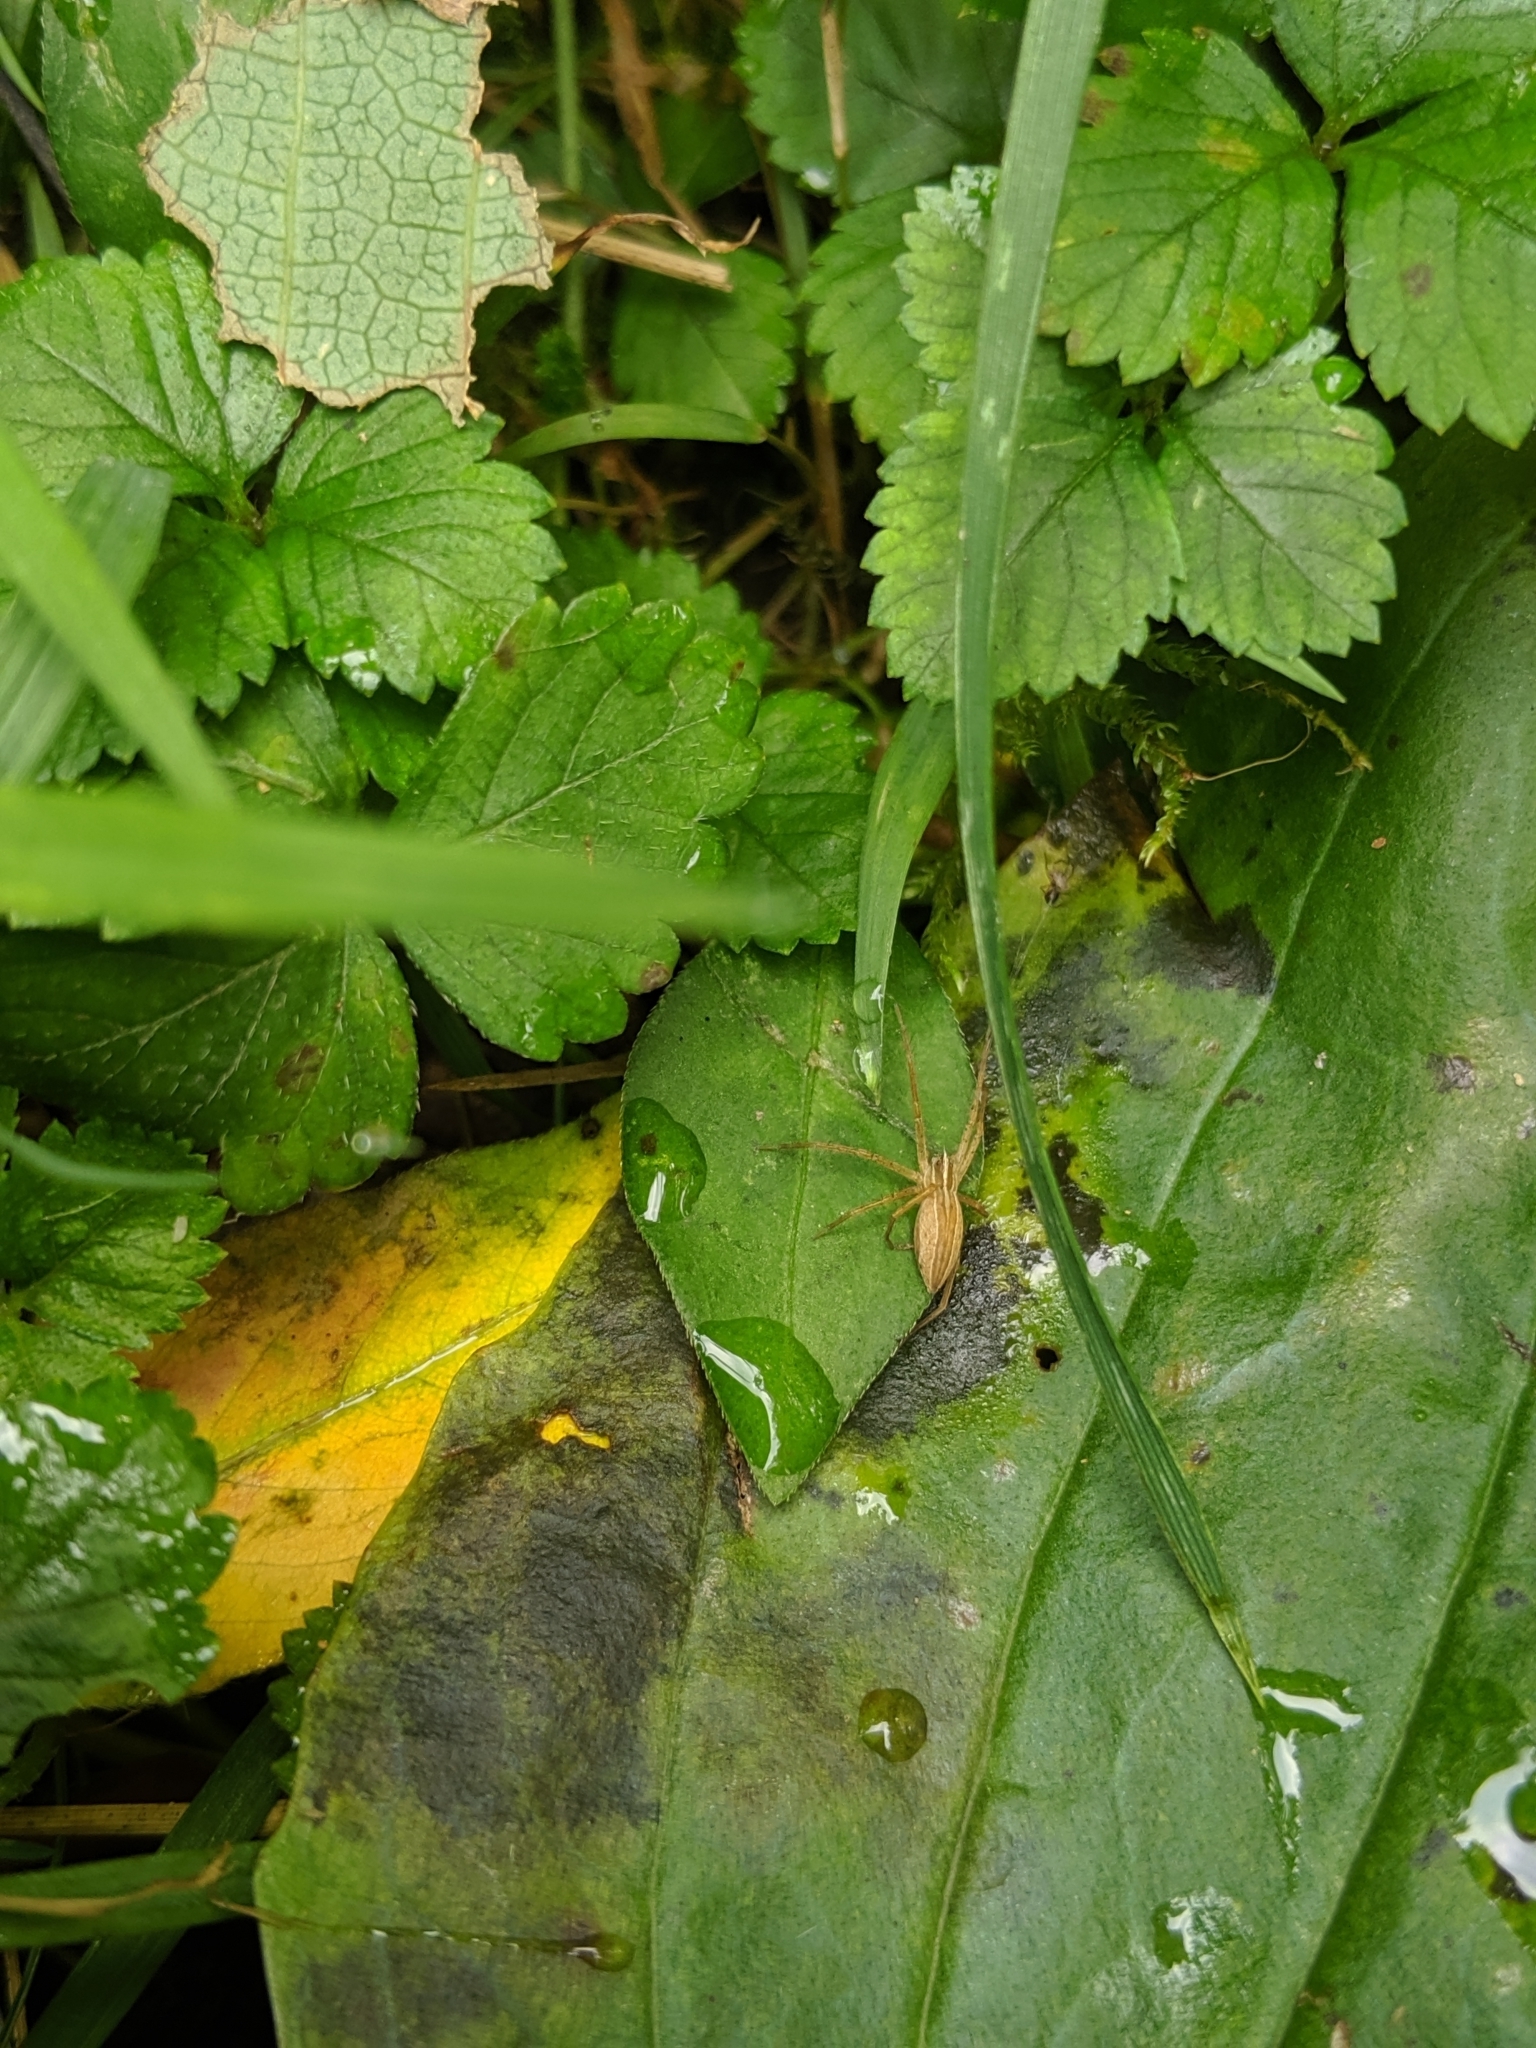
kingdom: Animalia
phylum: Arthropoda
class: Arachnida
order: Araneae
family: Pisauridae
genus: Pisaurina
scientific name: Pisaurina dubia
